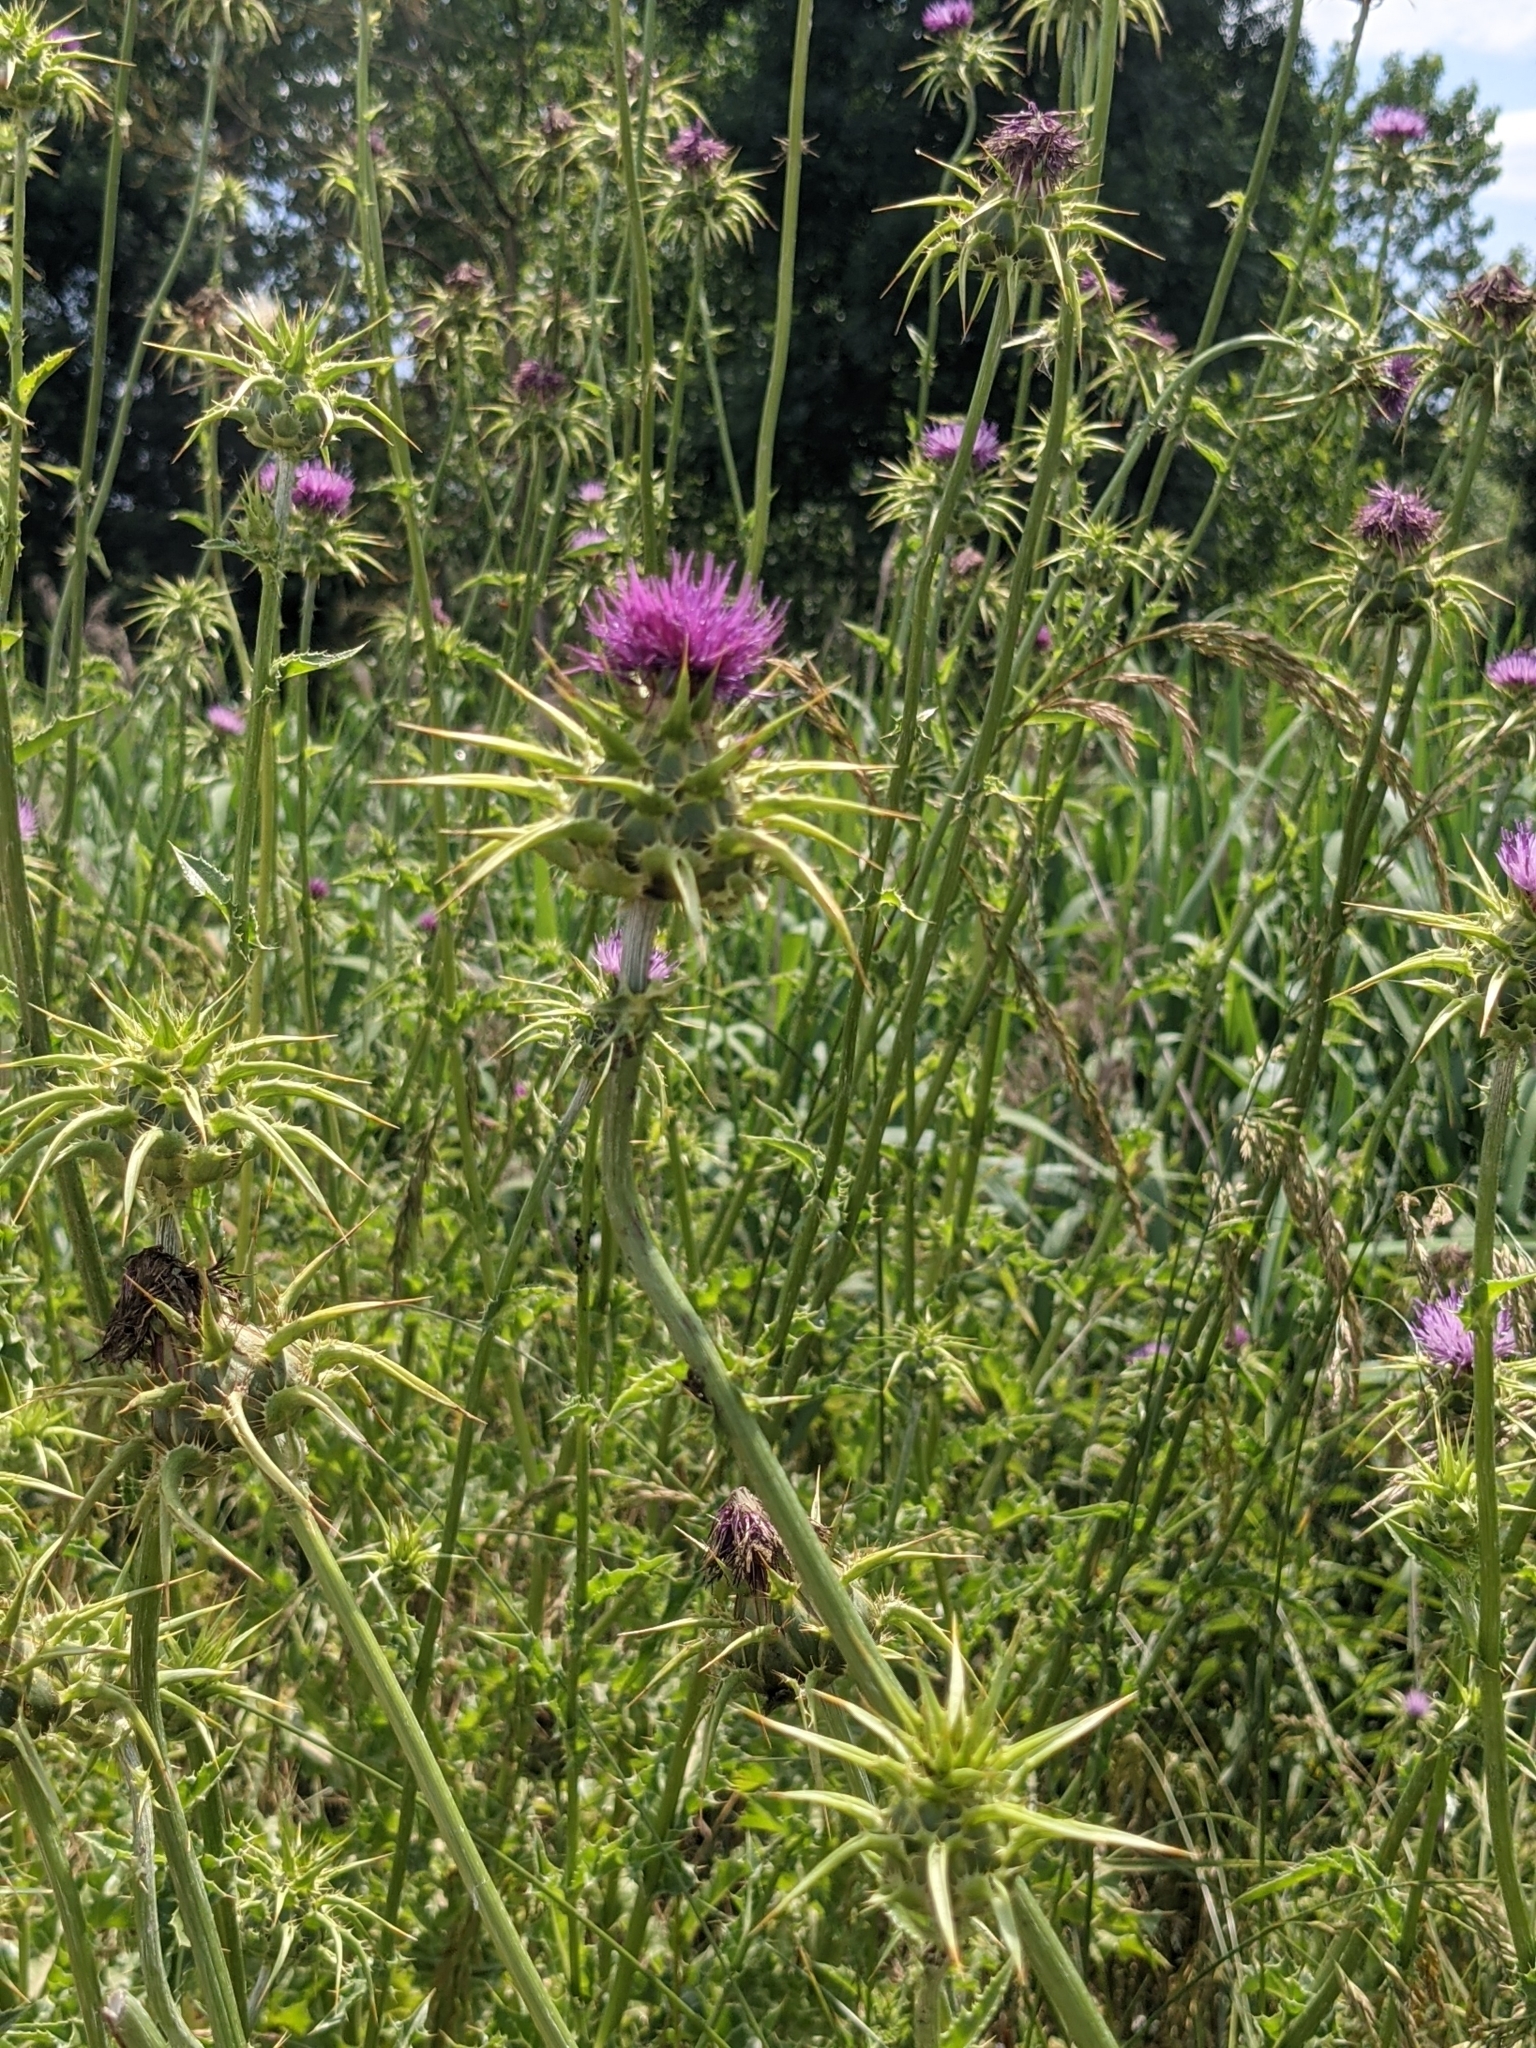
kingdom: Plantae
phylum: Tracheophyta
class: Magnoliopsida
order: Asterales
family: Asteraceae
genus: Silybum
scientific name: Silybum marianum
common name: Milk thistle
